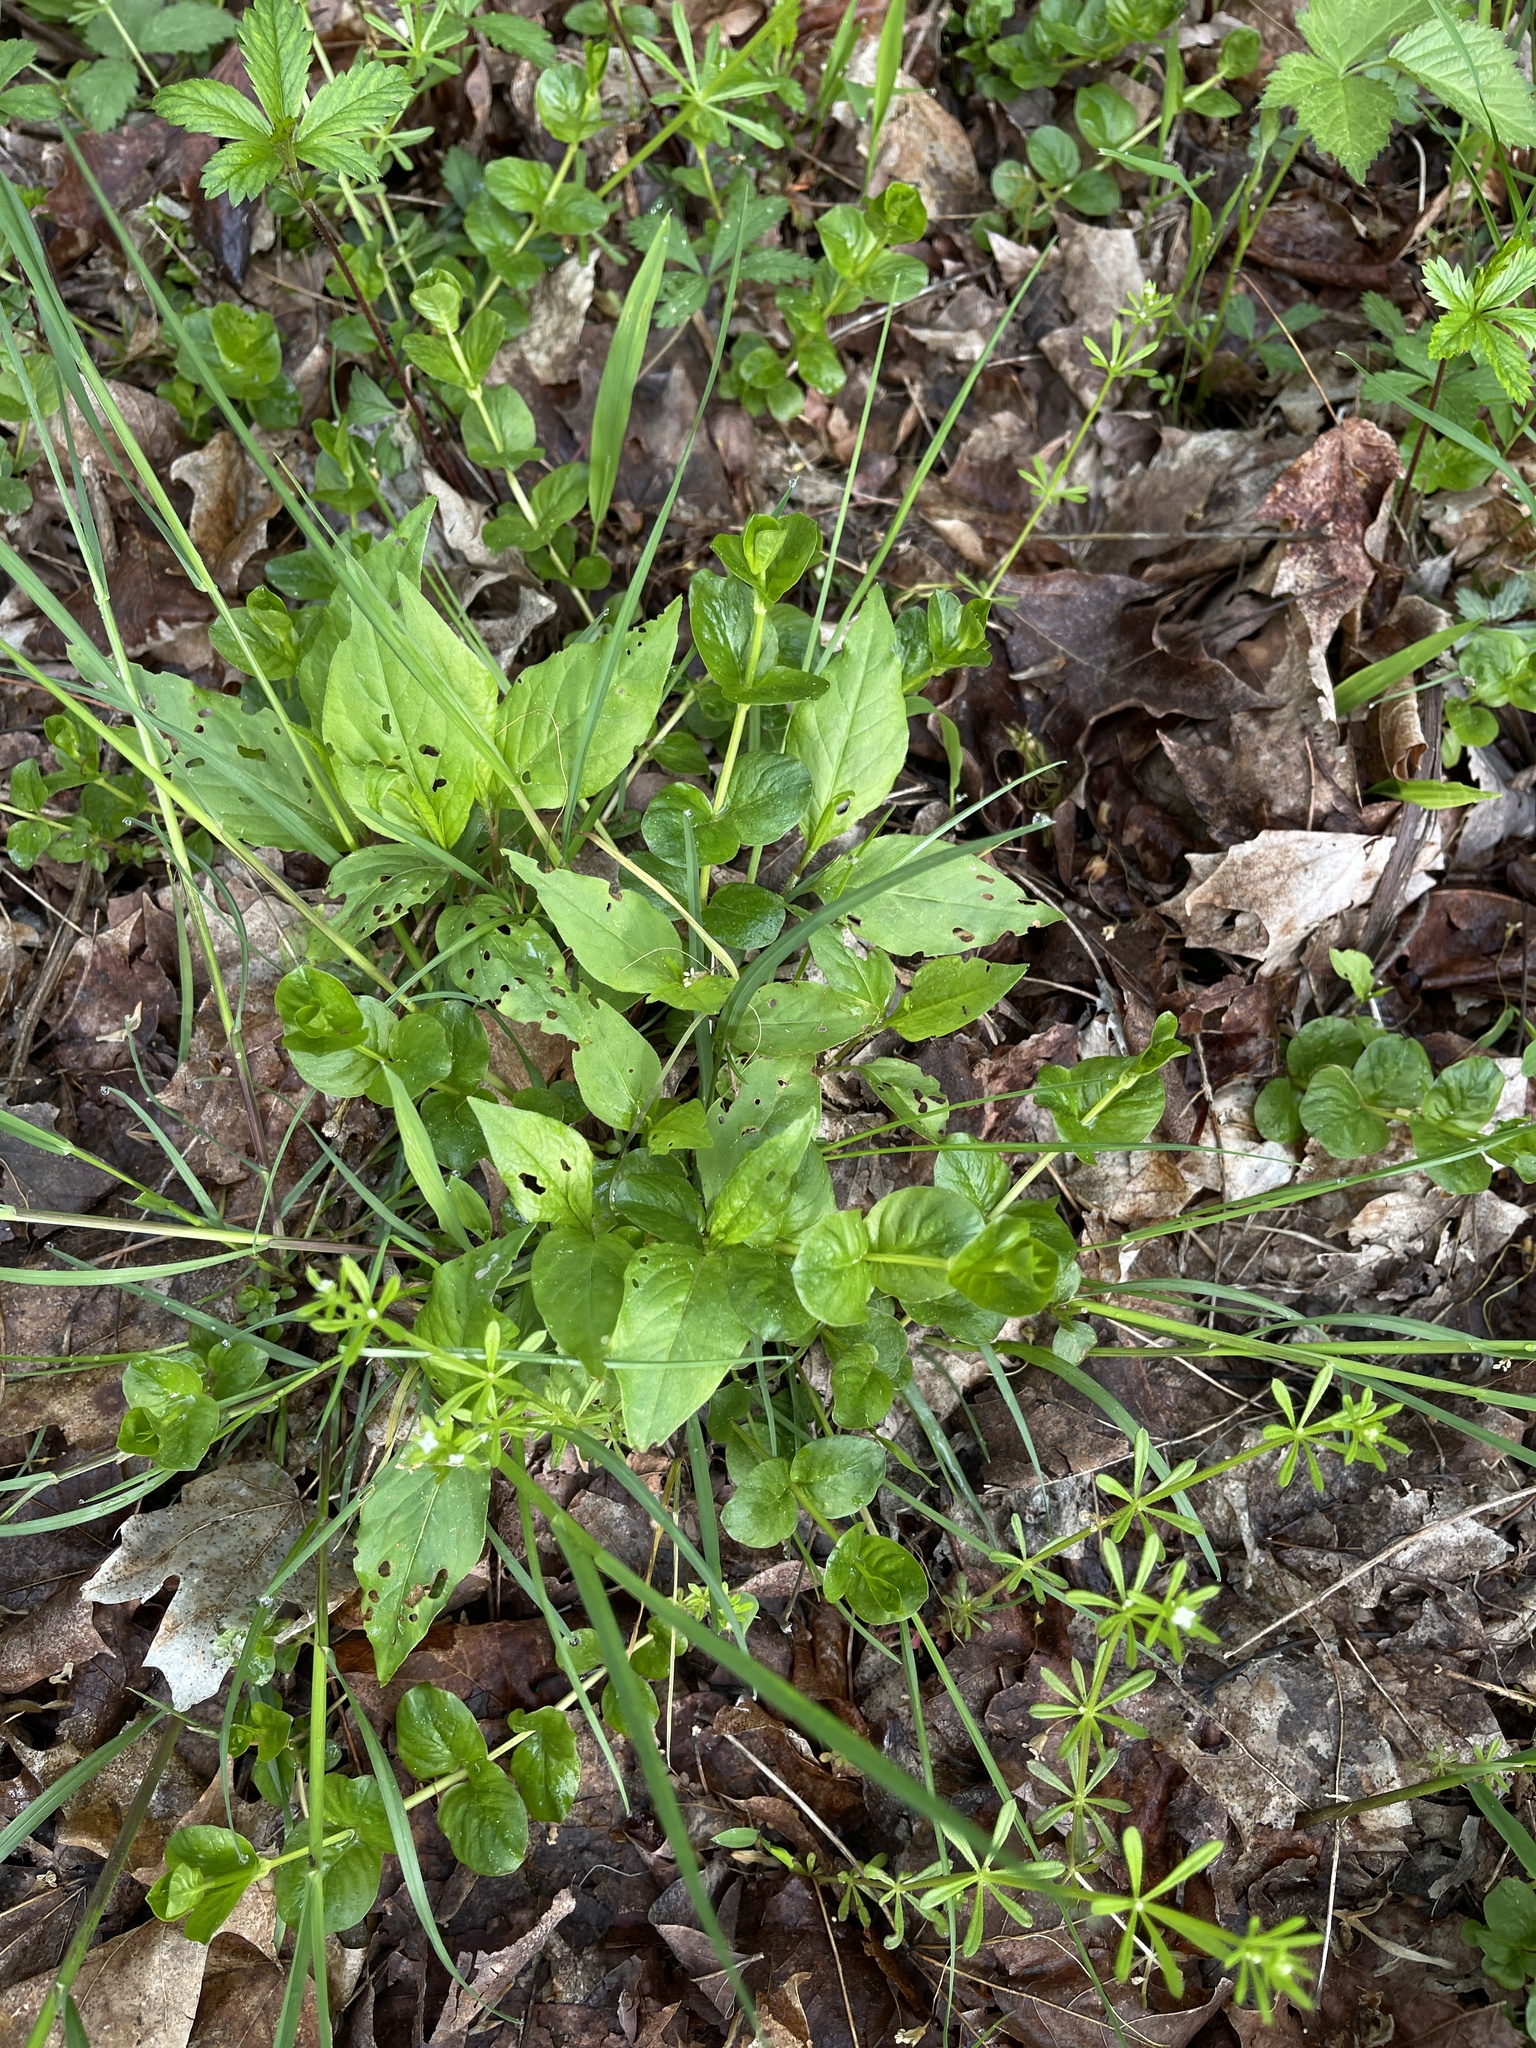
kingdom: Plantae
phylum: Tracheophyta
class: Magnoliopsida
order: Caryophyllales
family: Polygonaceae
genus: Persicaria
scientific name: Persicaria virginiana
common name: Jumpseed
